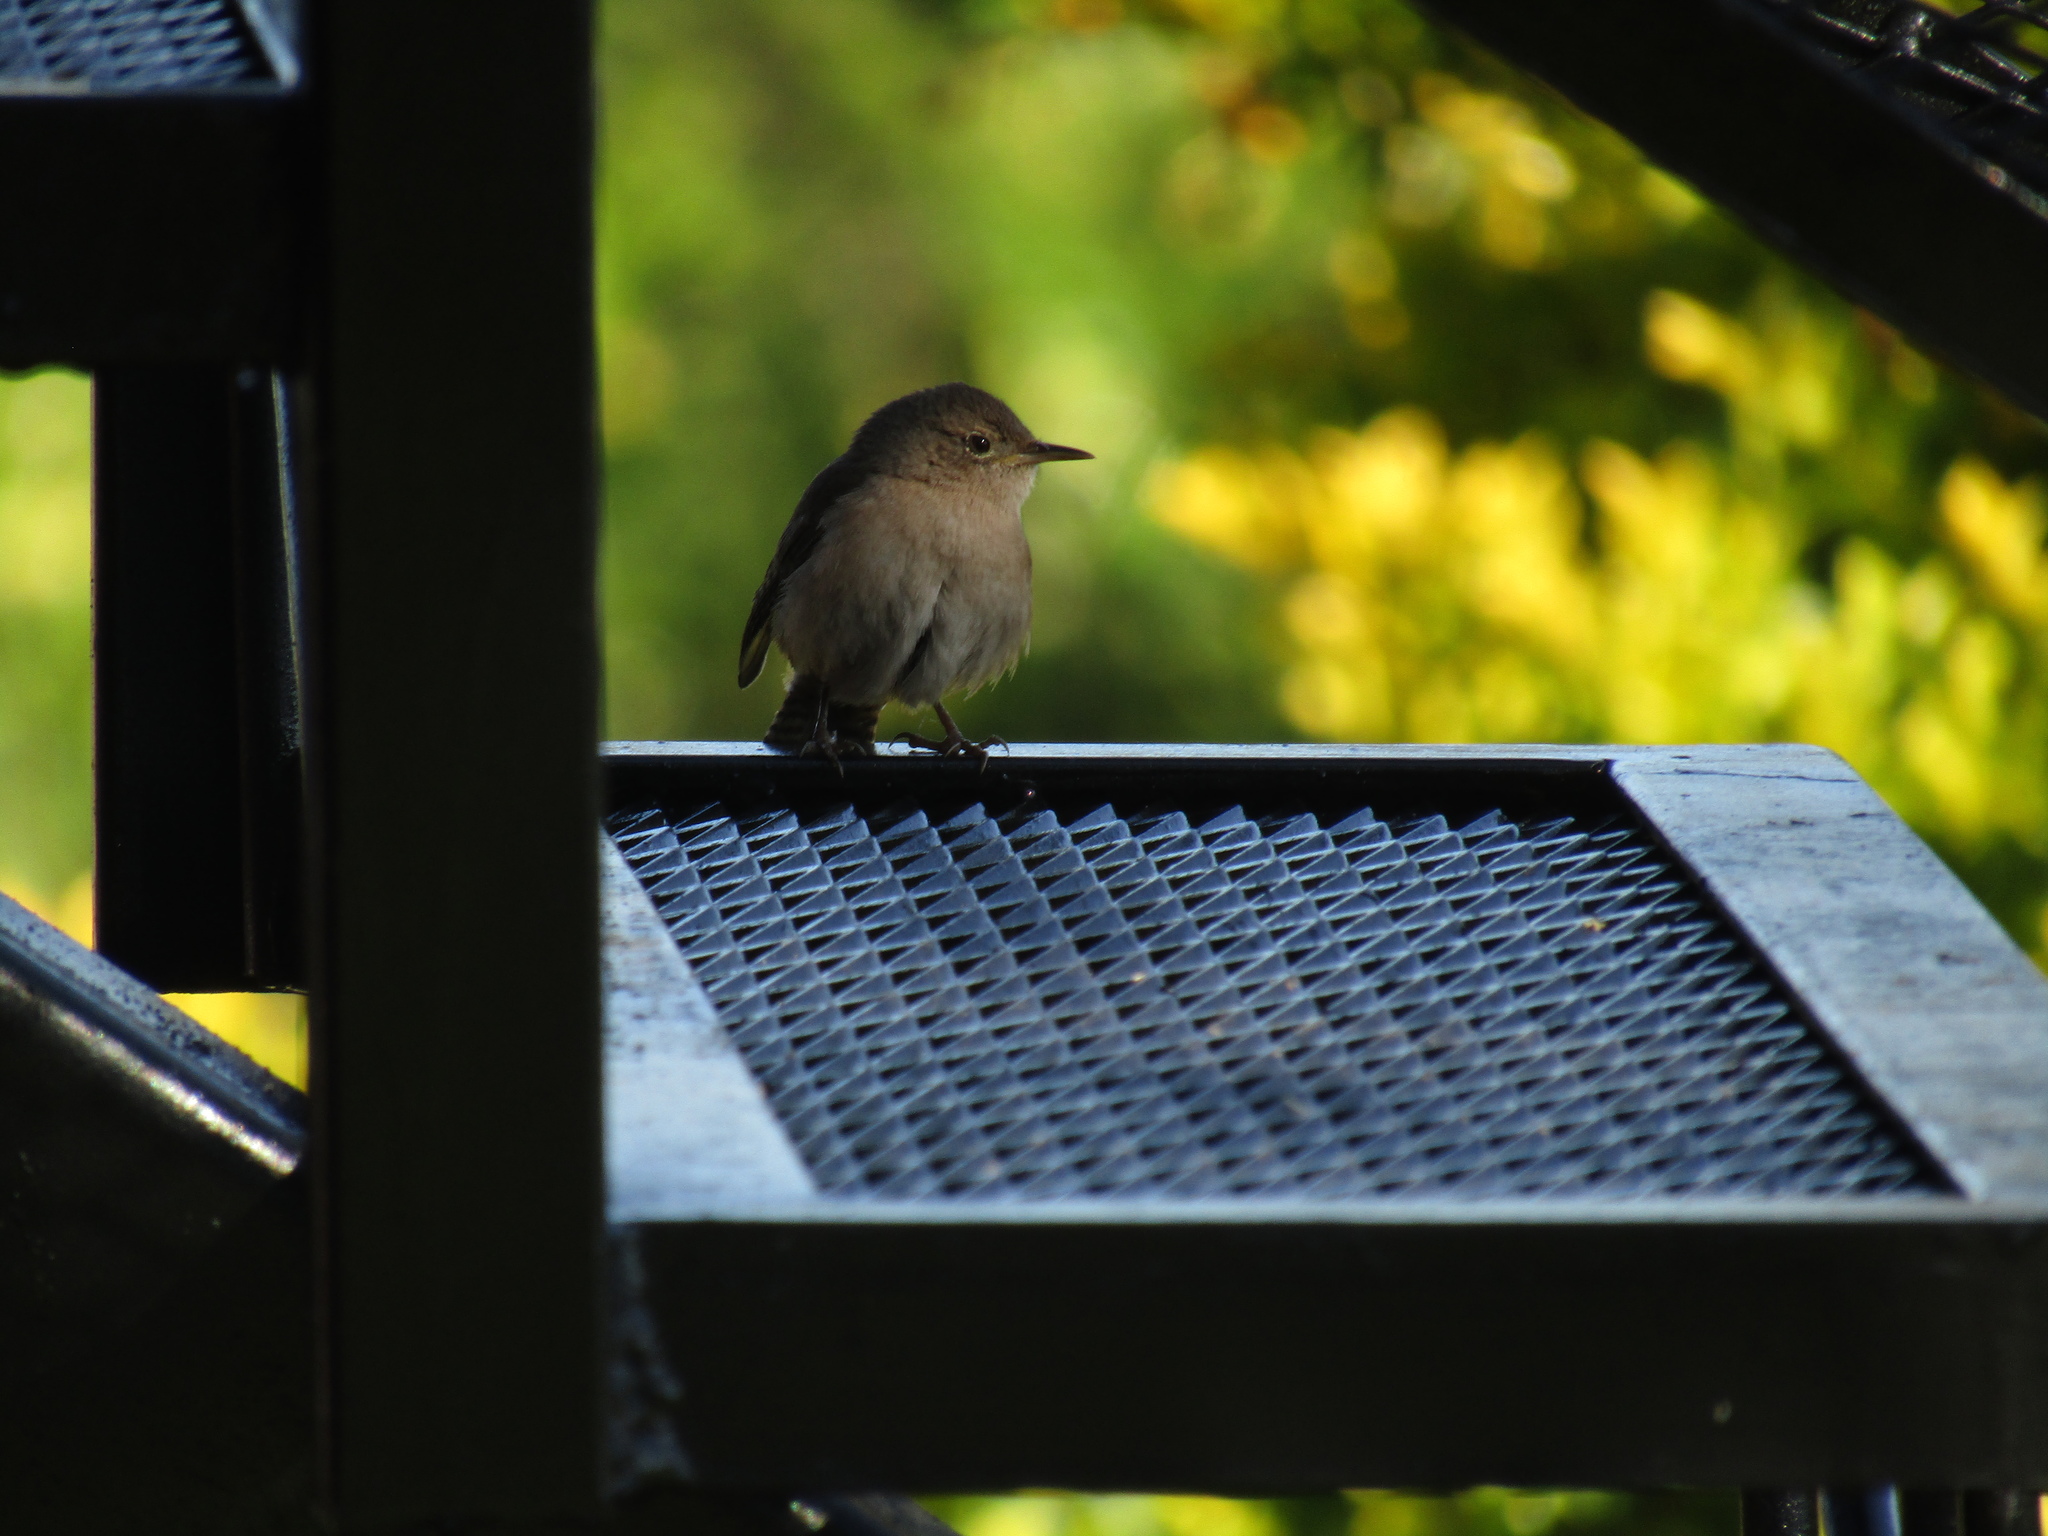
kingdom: Animalia
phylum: Chordata
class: Aves
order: Passeriformes
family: Troglodytidae
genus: Troglodytes
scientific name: Troglodytes aedon
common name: House wren
